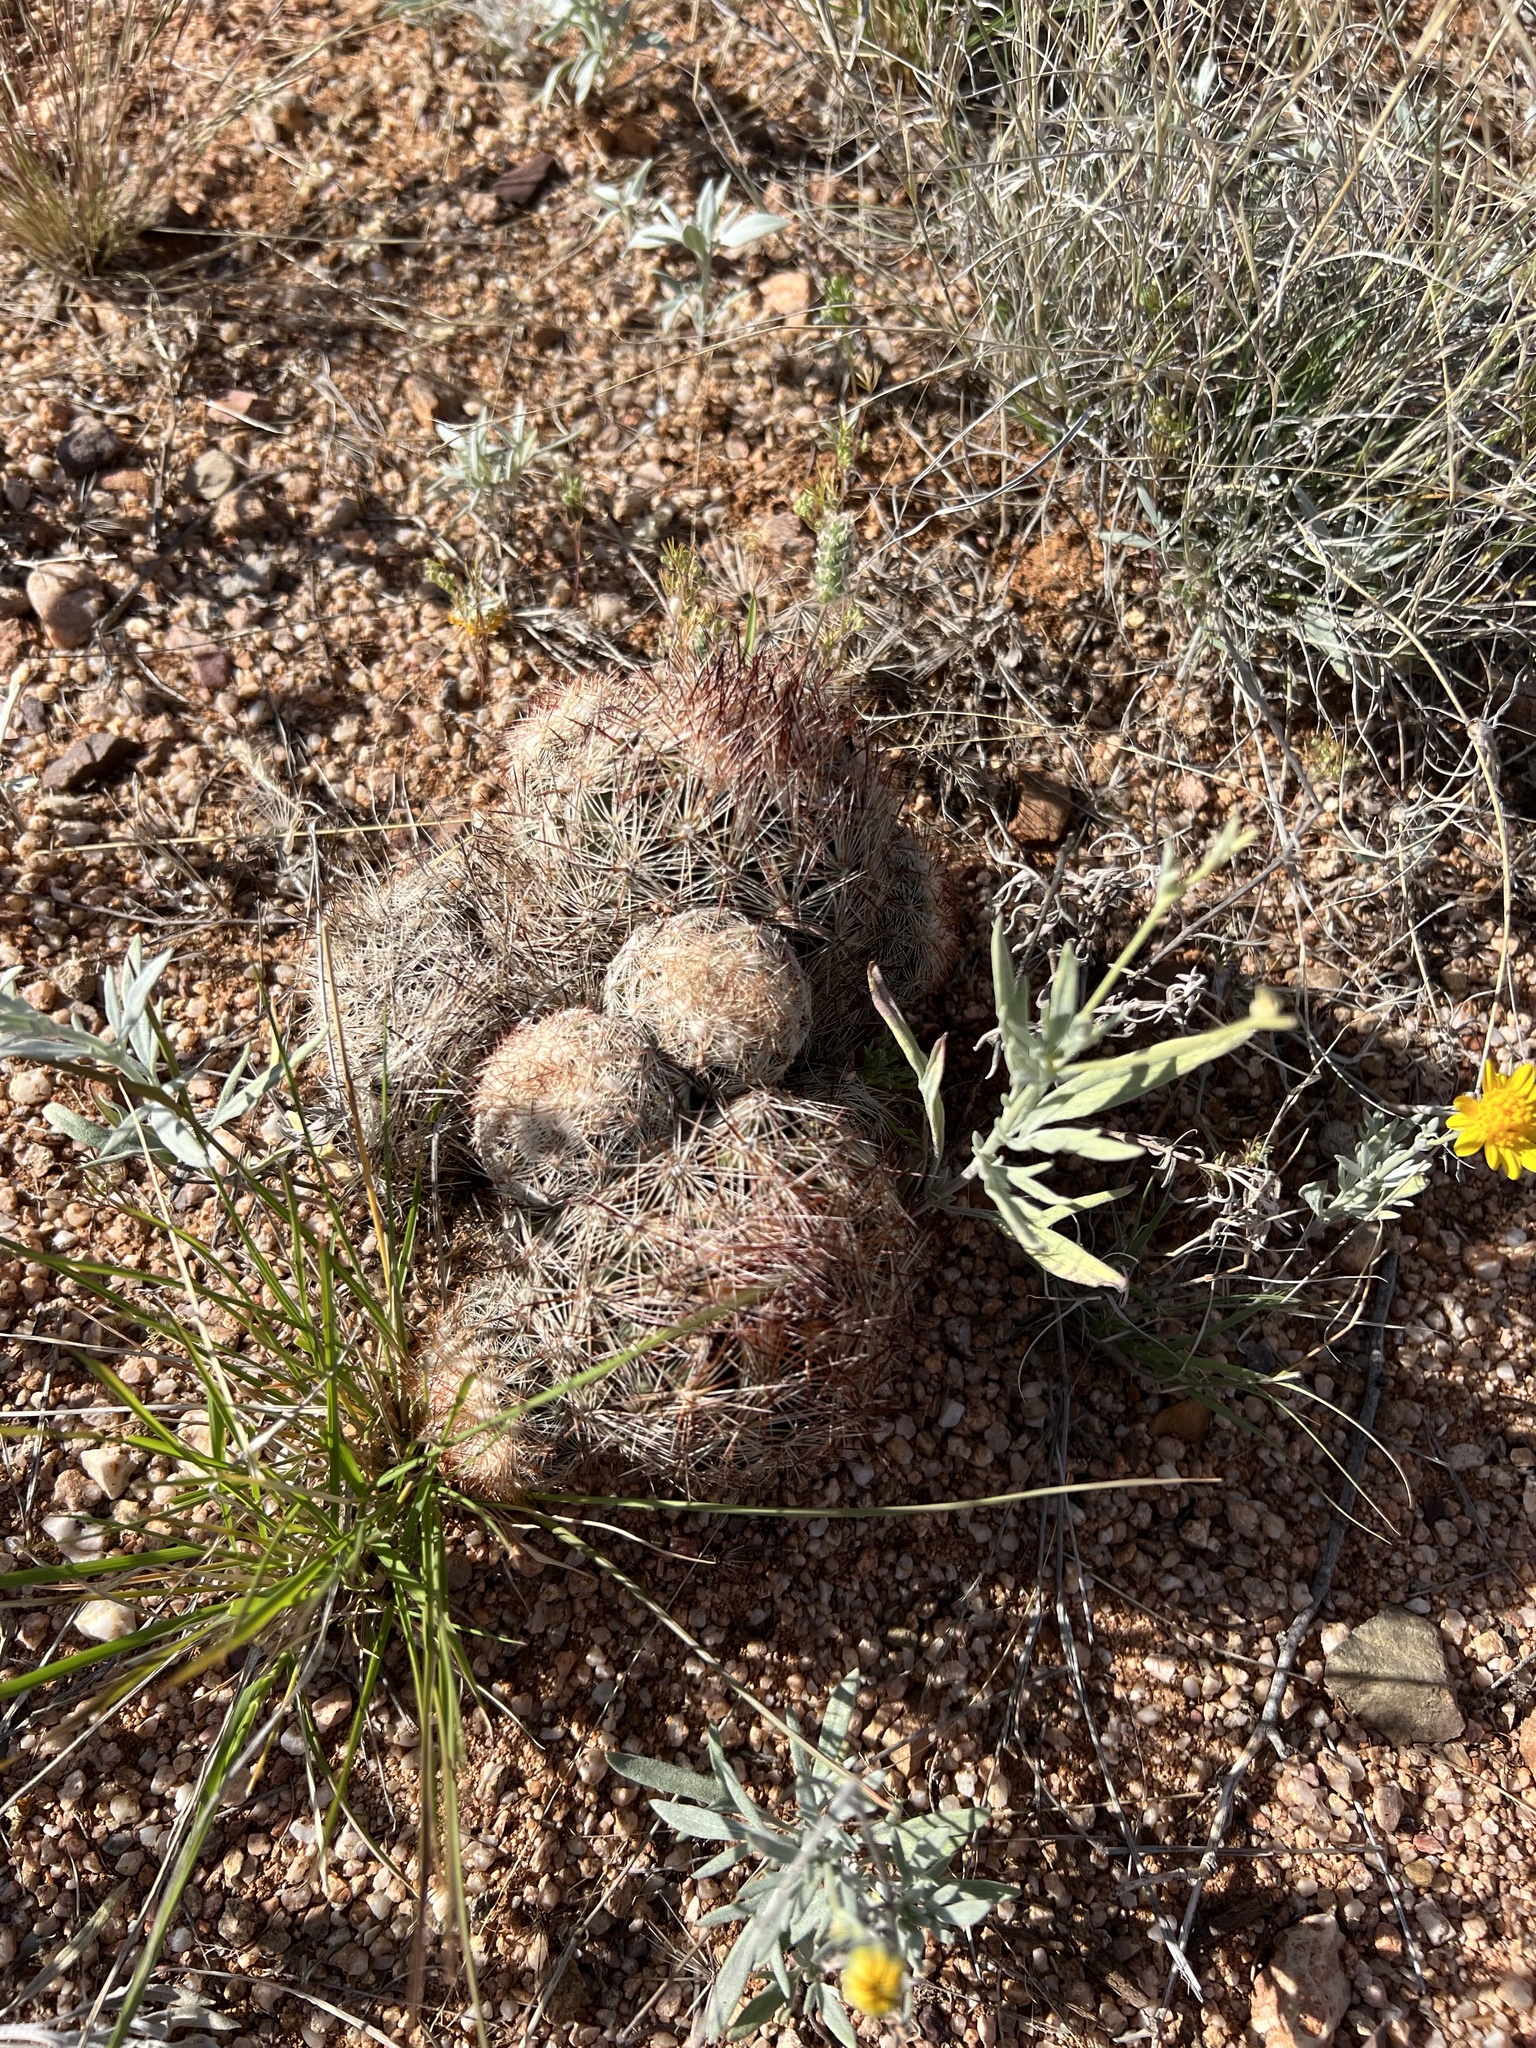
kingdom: Plantae
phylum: Tracheophyta
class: Magnoliopsida
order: Caryophyllales
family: Cactaceae
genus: Pelecyphora
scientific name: Pelecyphora vivipara
